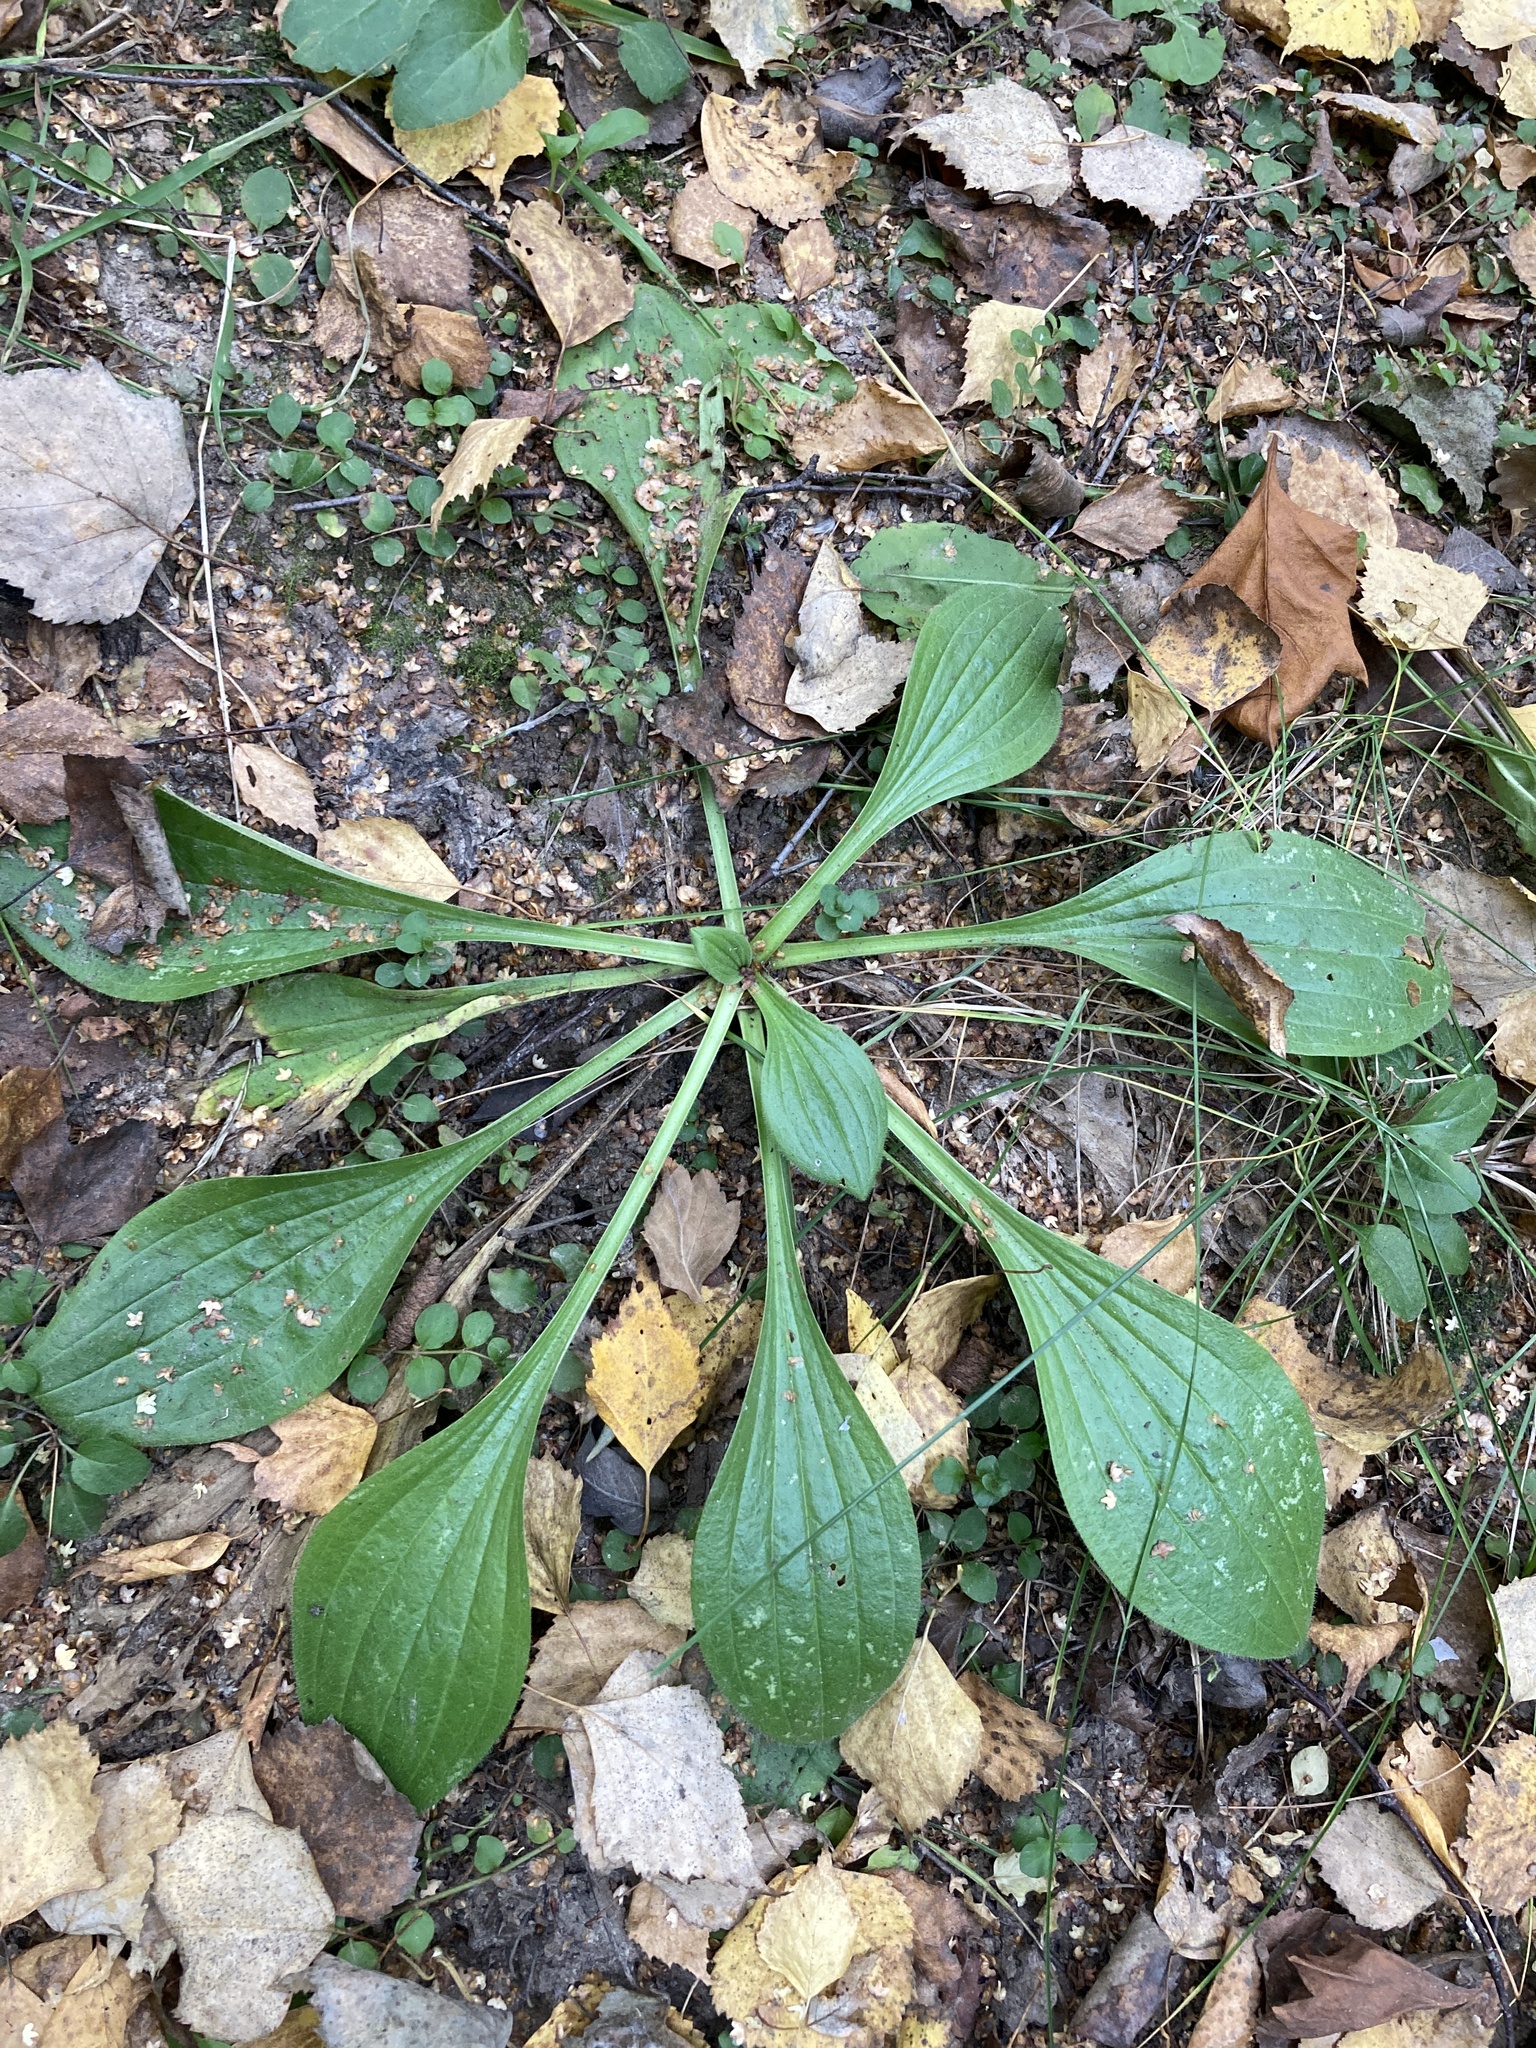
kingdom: Plantae
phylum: Tracheophyta
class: Magnoliopsida
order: Lamiales
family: Plantaginaceae
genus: Plantago
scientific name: Plantago major
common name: Common plantain
